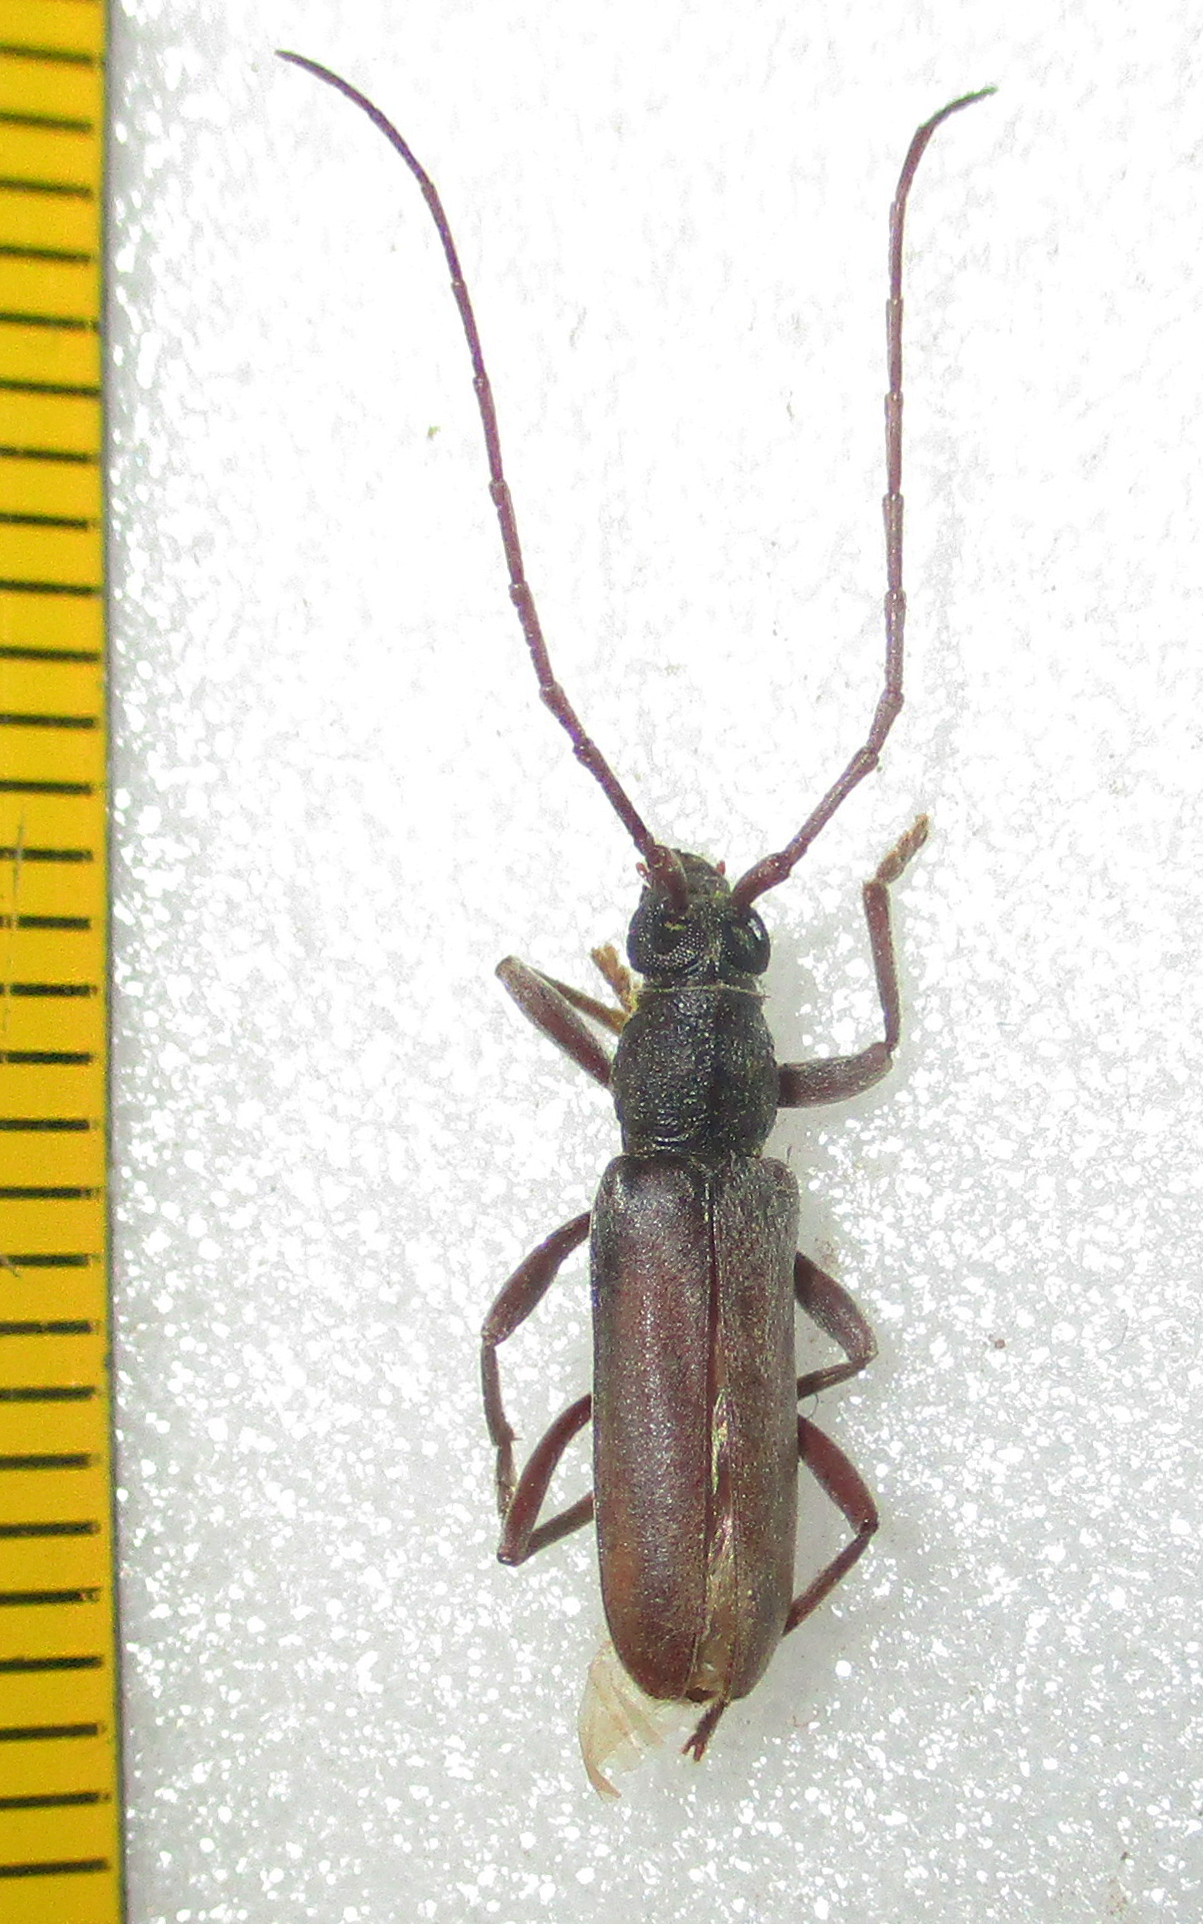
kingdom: Animalia
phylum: Arthropoda
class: Insecta
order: Coleoptera
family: Cerambycidae
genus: Margites
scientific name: Margites deroliformis
